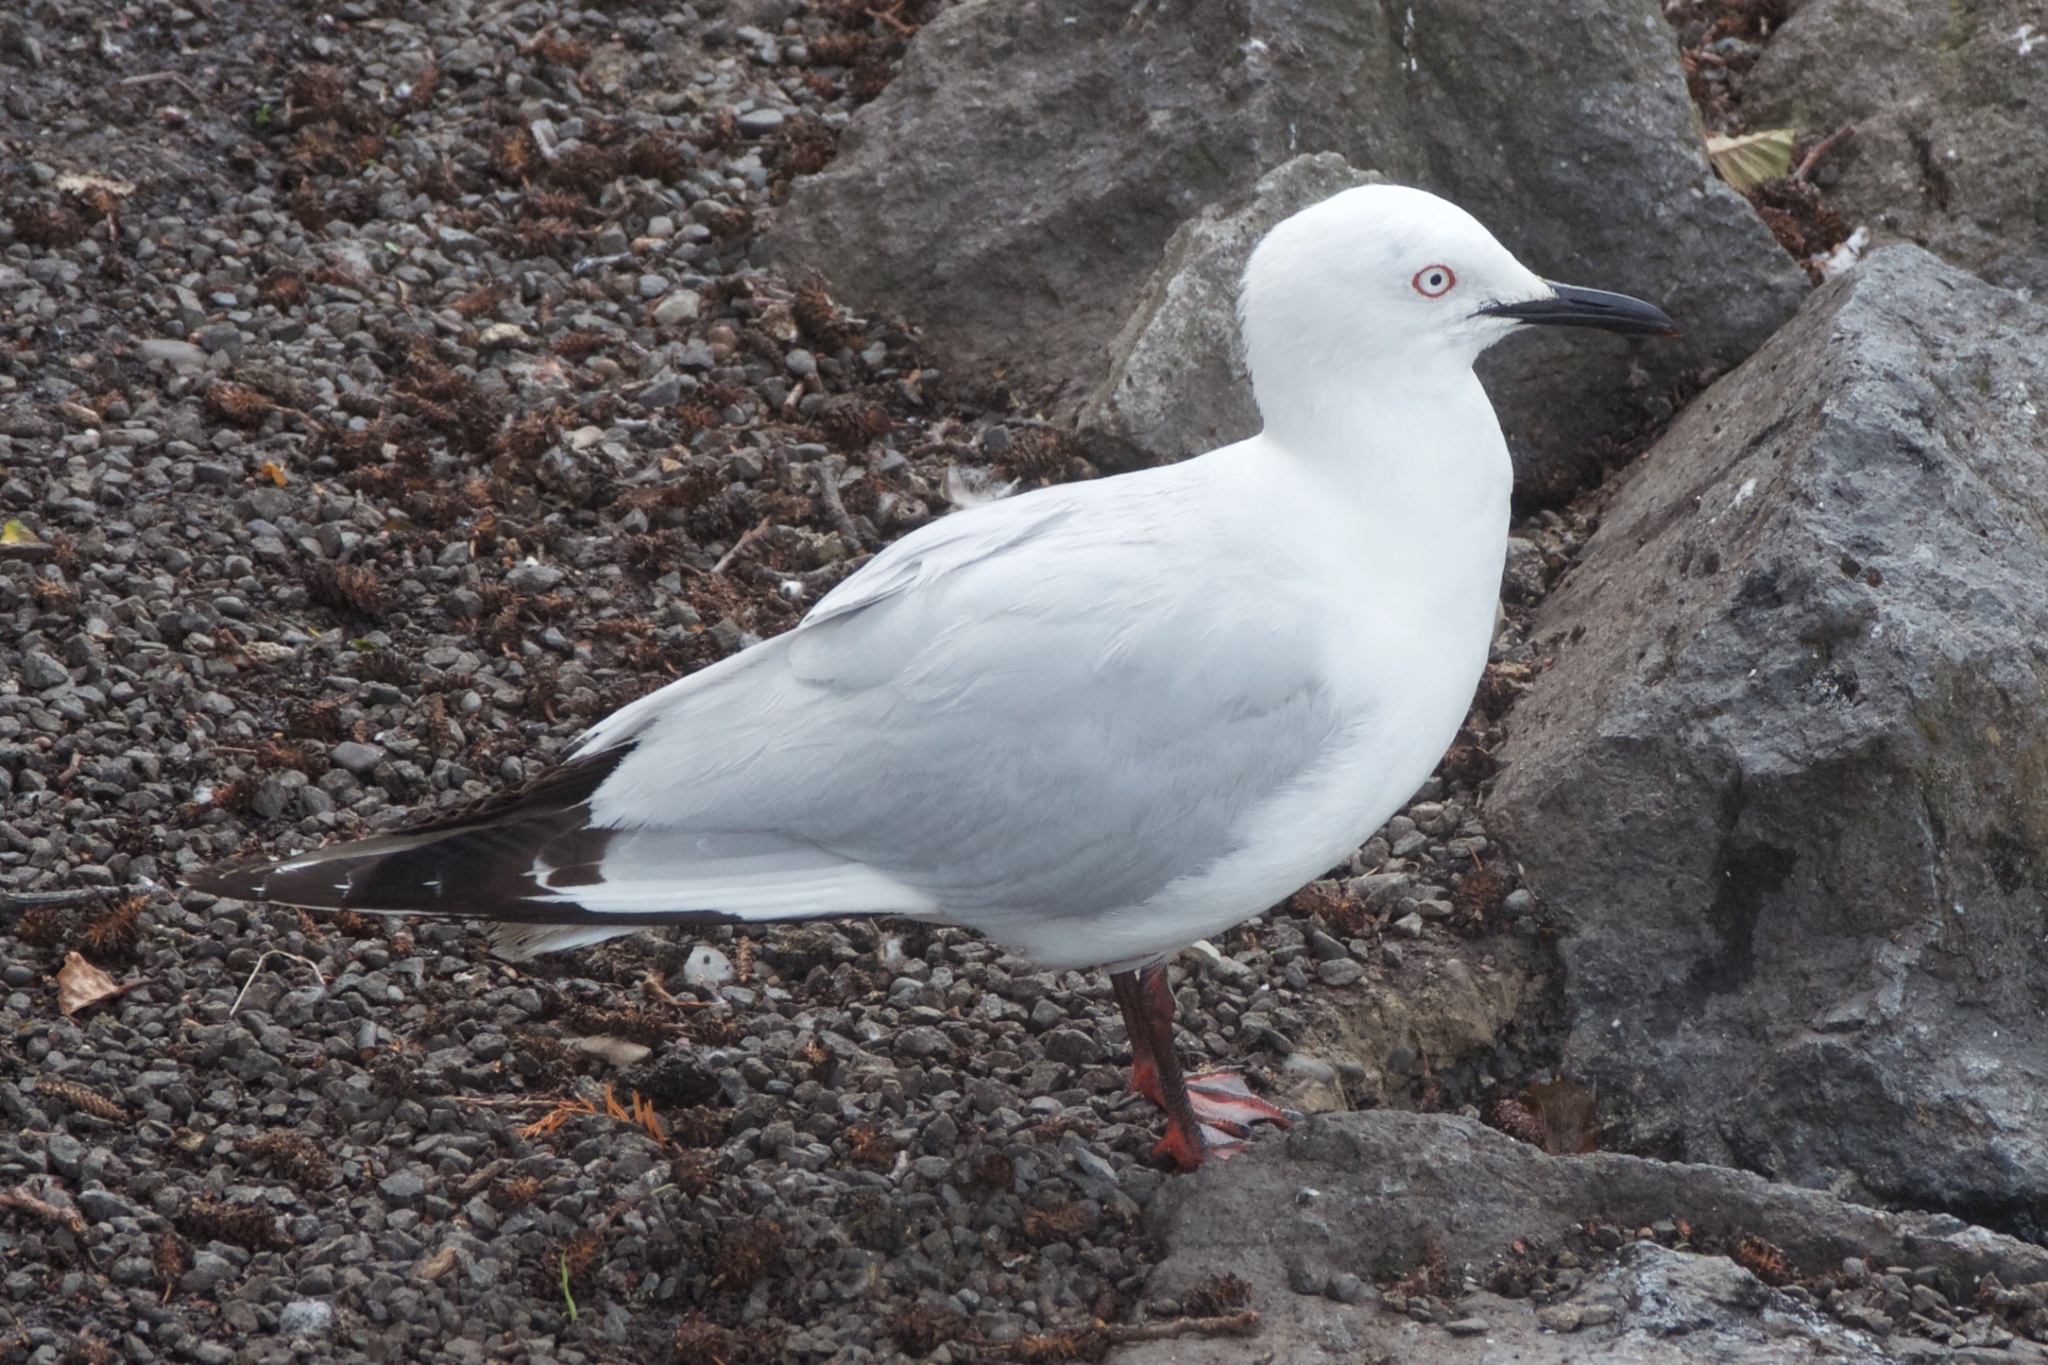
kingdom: Animalia
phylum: Chordata
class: Aves
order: Charadriiformes
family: Laridae
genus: Chroicocephalus
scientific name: Chroicocephalus bulleri
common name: Black-billed gull
